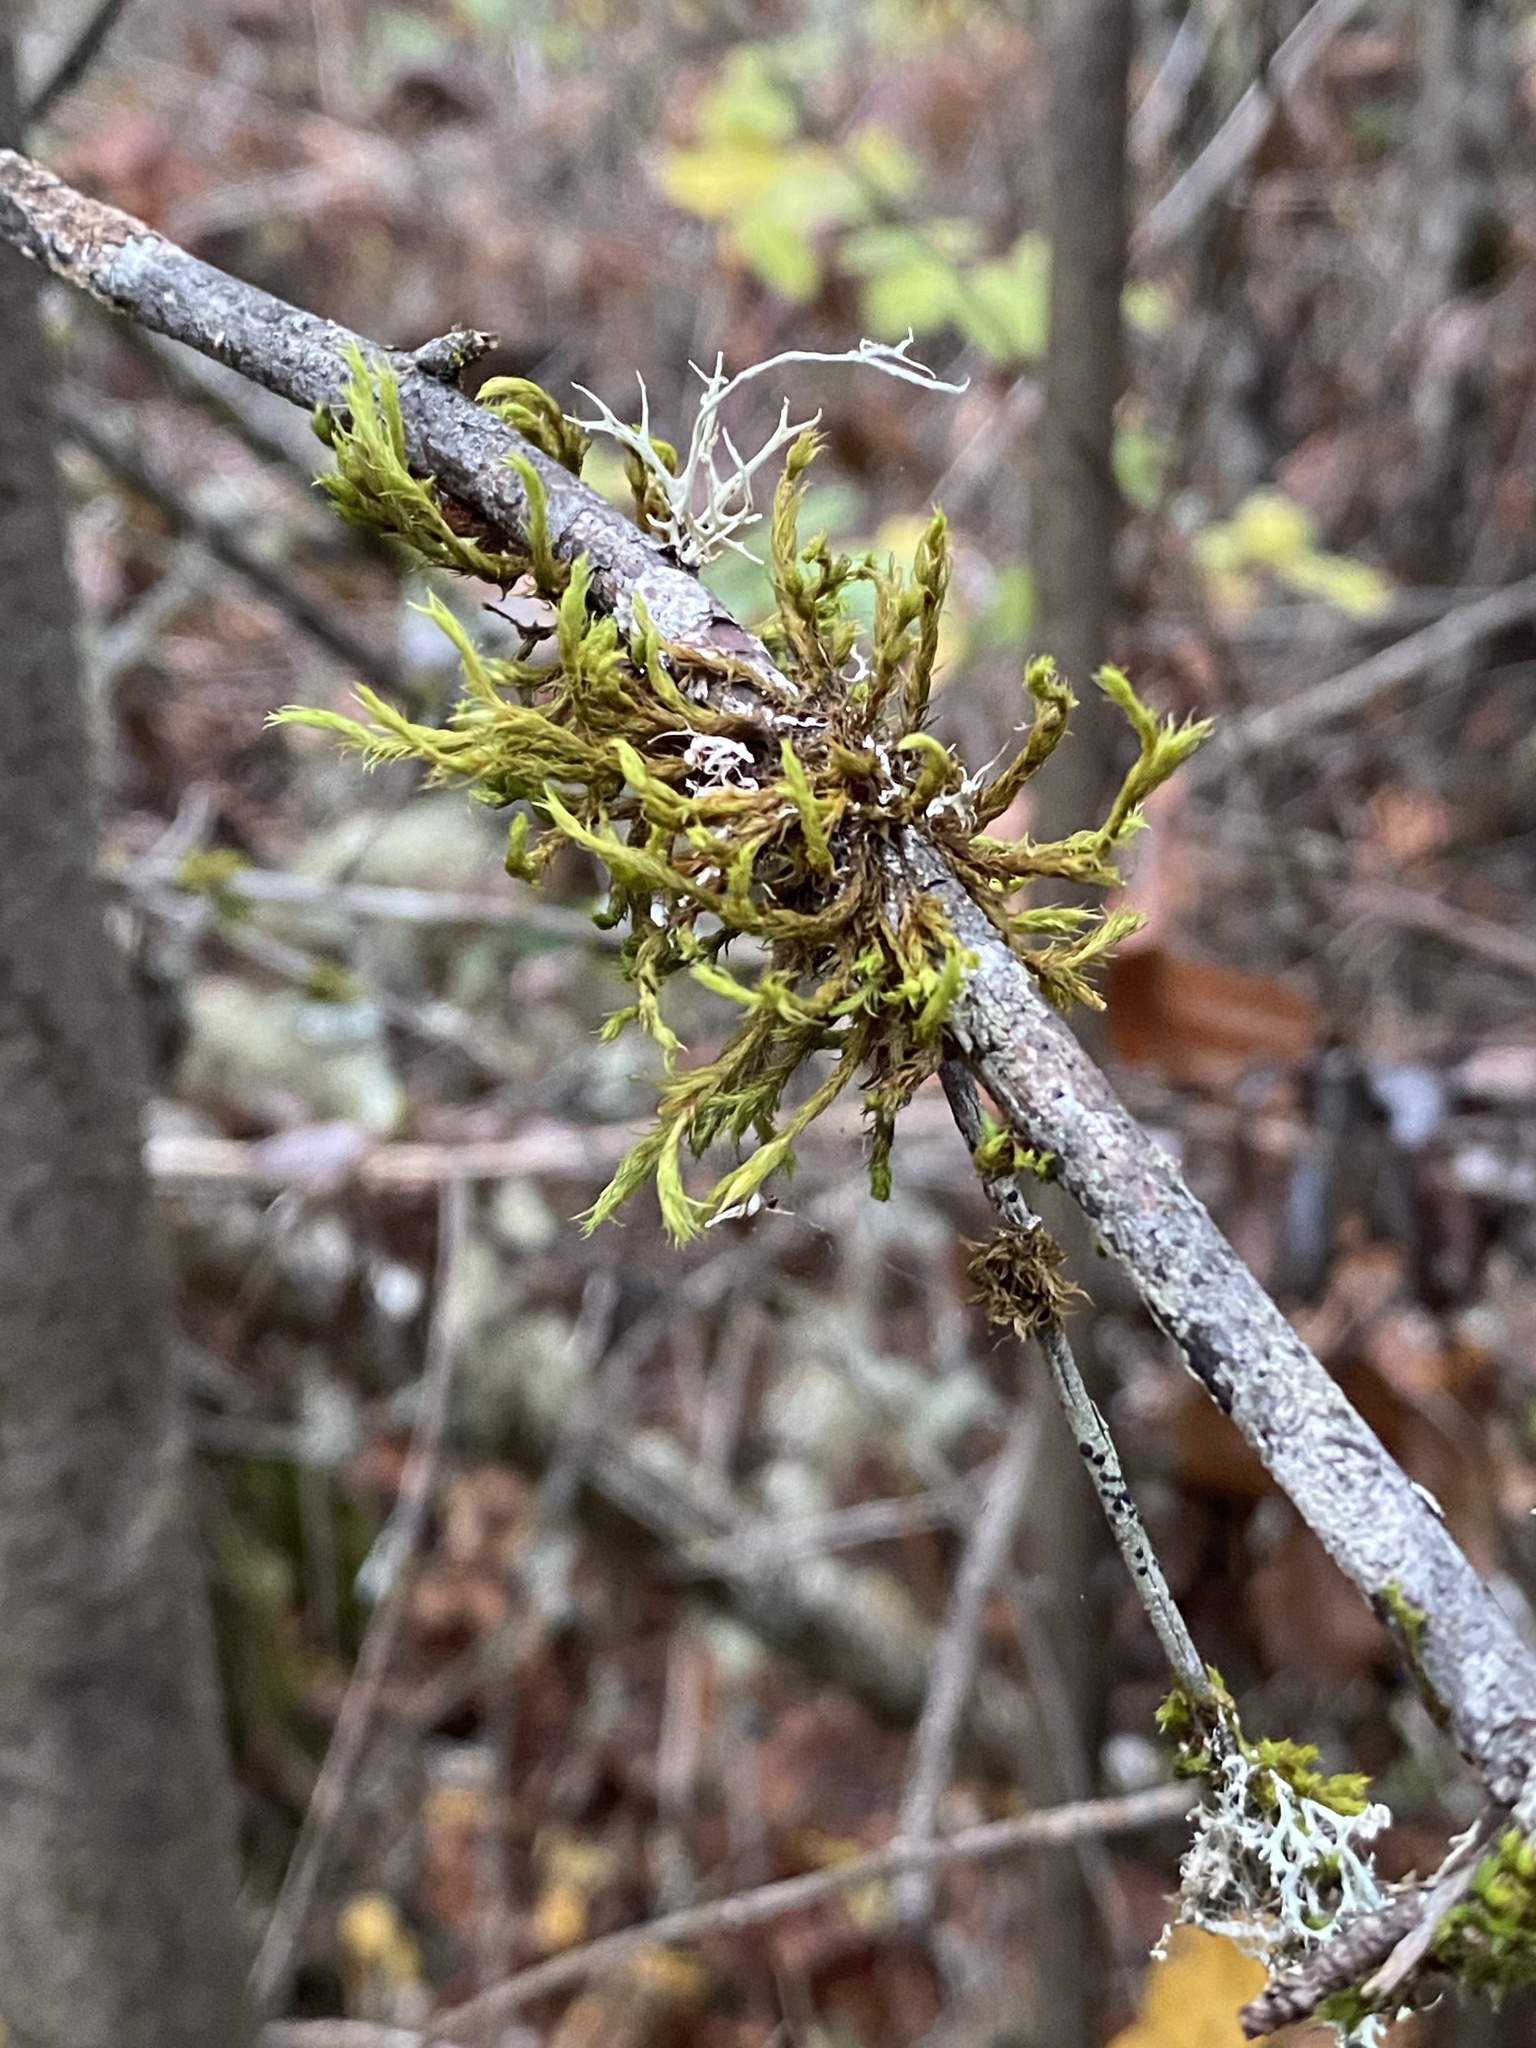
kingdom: Plantae
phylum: Bryophyta
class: Bryopsida
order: Orthotrichales
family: Orthotrichaceae
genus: Pulvigera
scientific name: Pulvigera lyellii
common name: Lyell's bristle-moss
